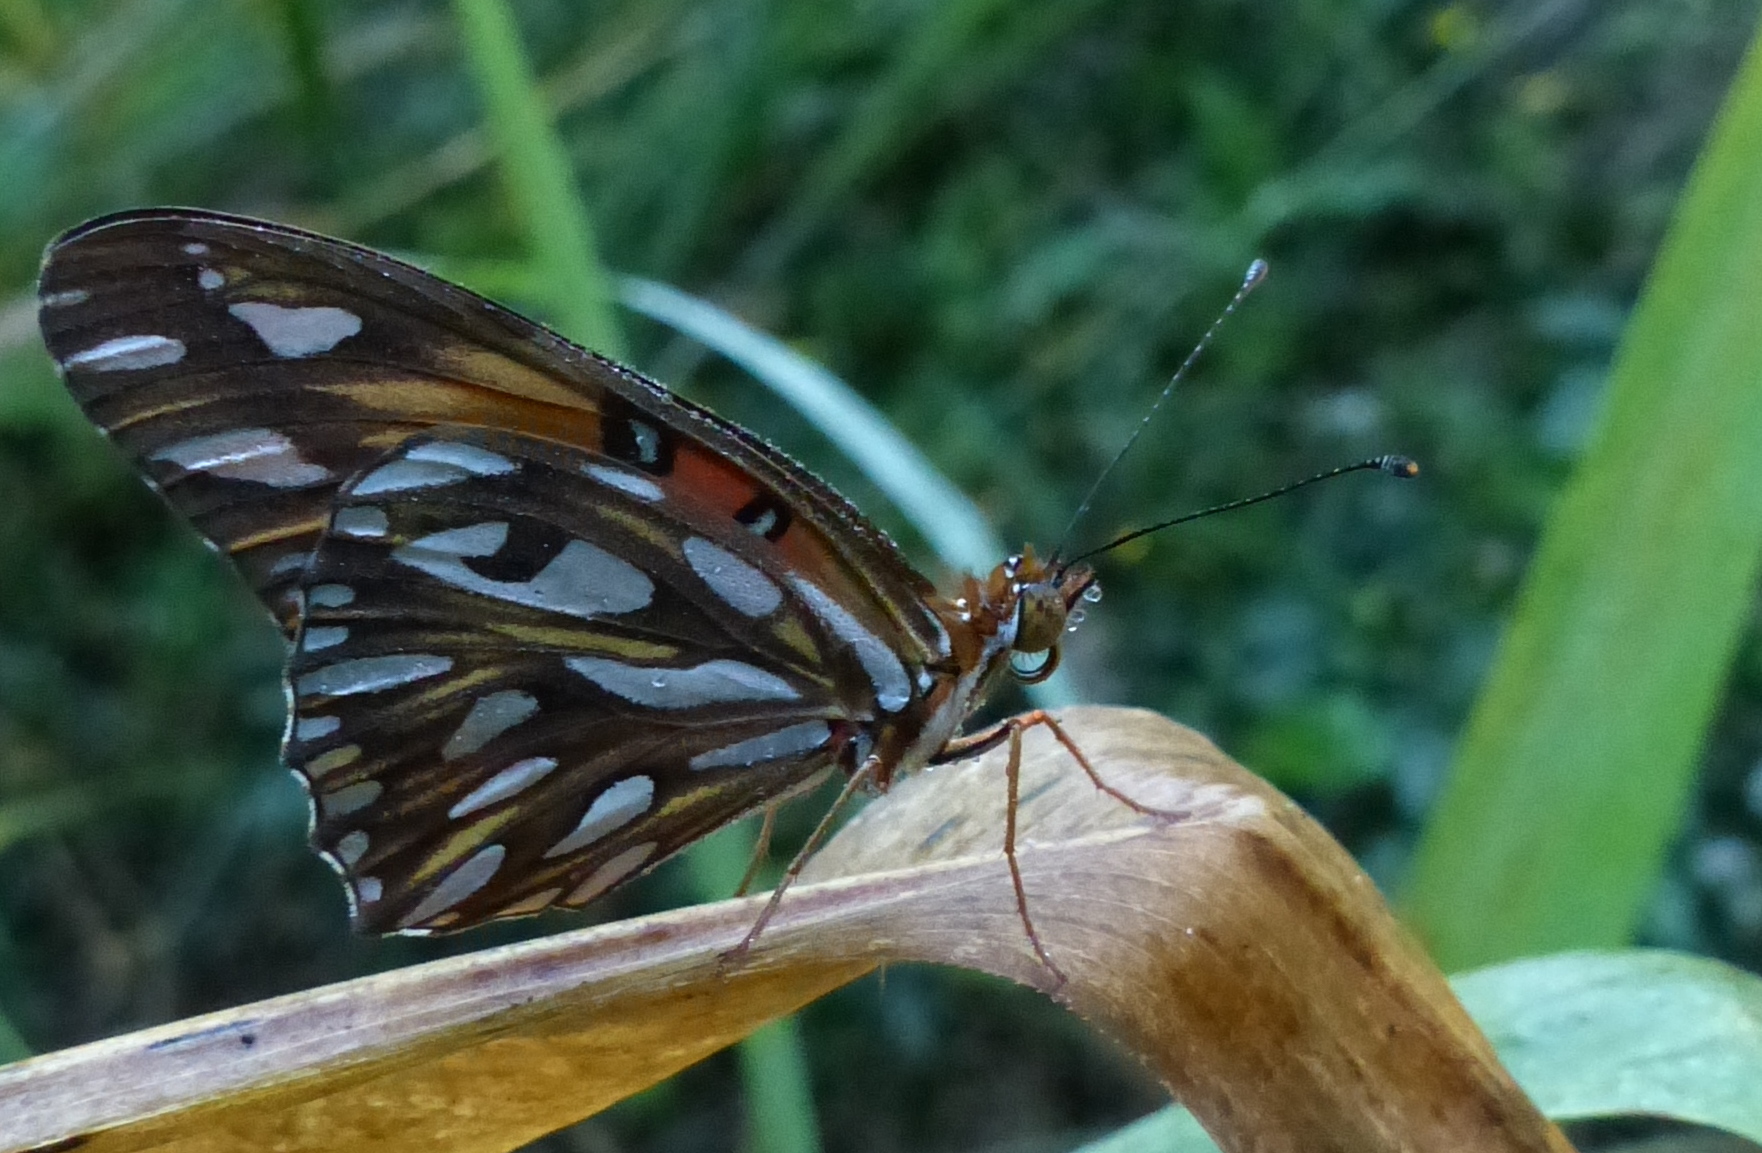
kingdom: Animalia
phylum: Arthropoda
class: Insecta
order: Lepidoptera
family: Nymphalidae
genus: Dione
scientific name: Dione vanillae
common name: Gulf fritillary
